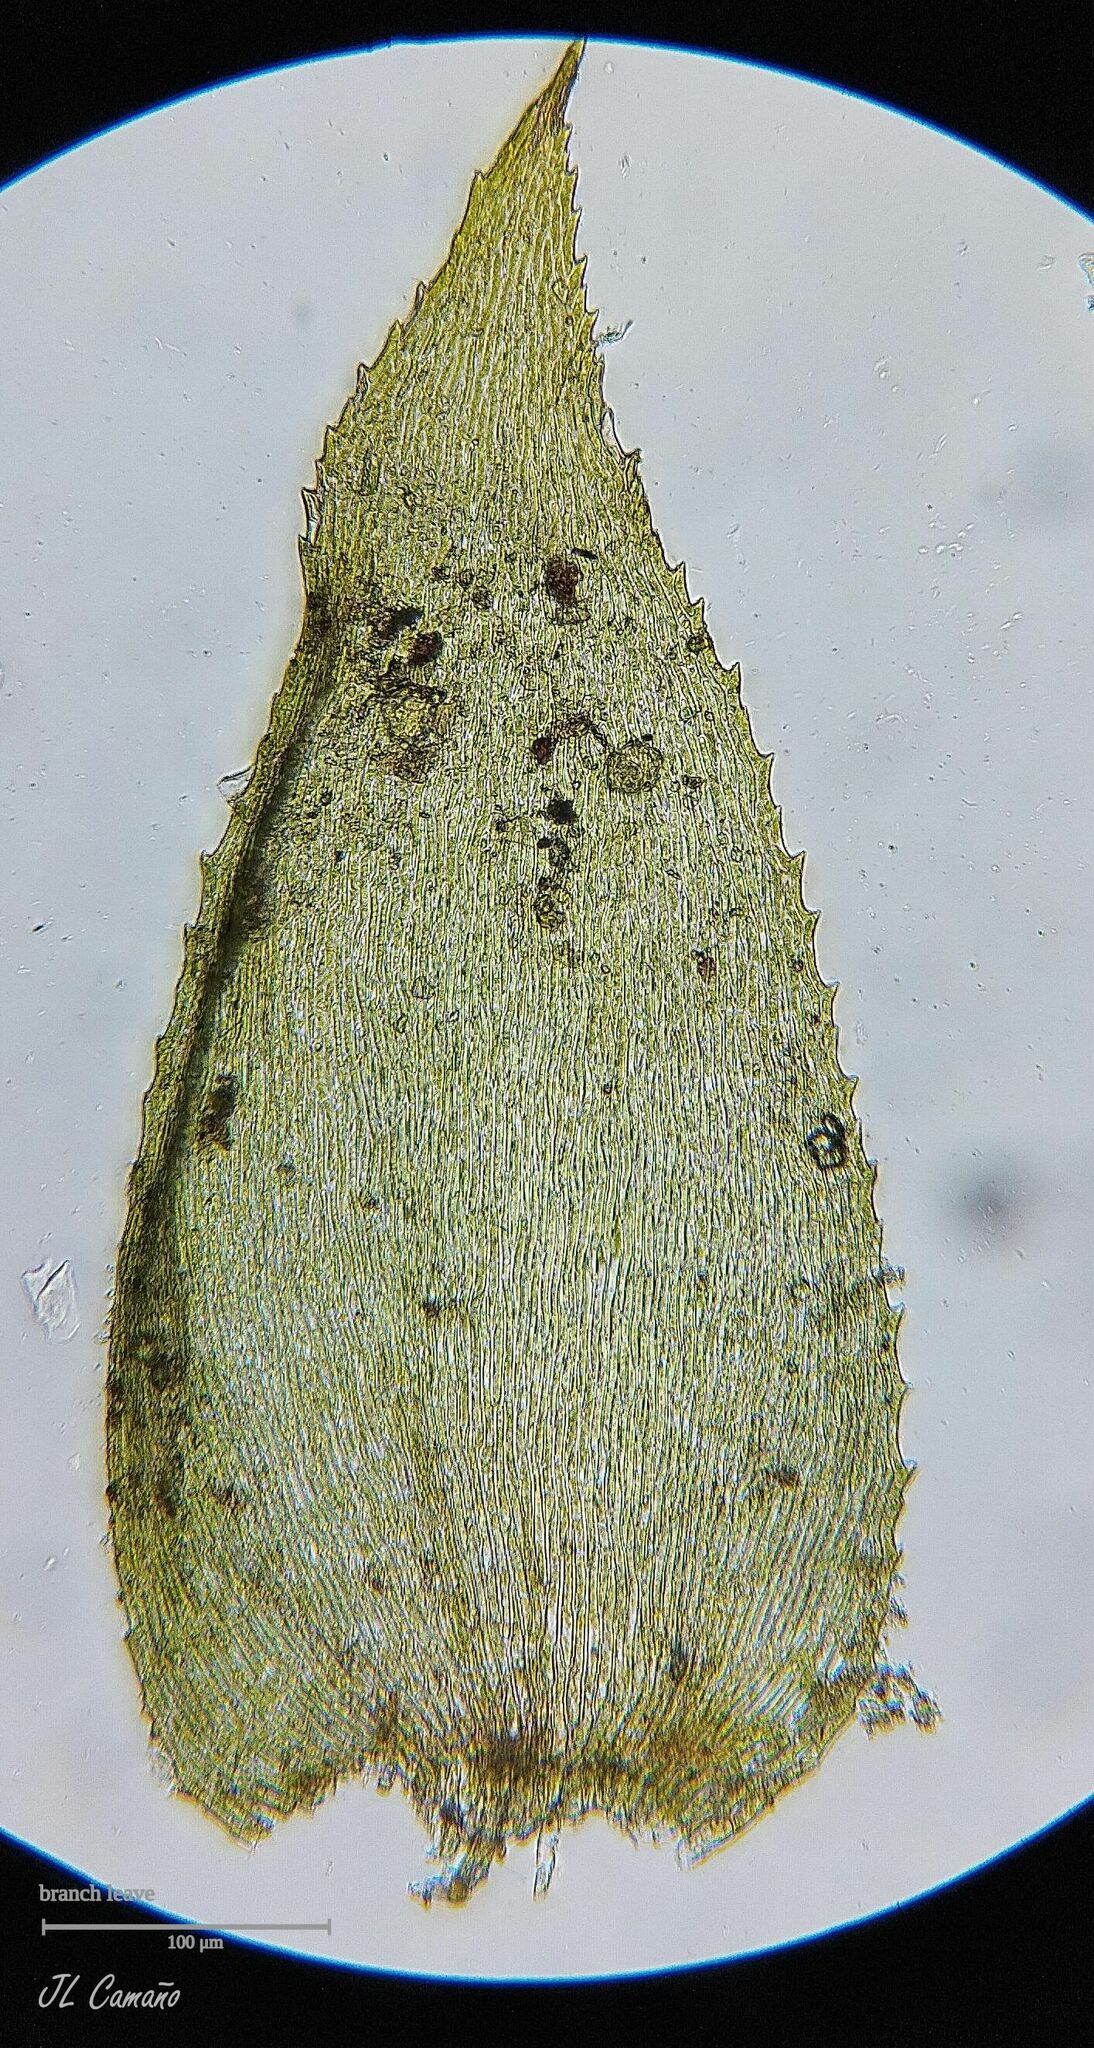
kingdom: Plantae
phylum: Bryophyta
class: Bryopsida
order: Hypnales
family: Myuriaceae
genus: Hyocomium
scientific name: Hyocomium armoricum
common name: Flagellate feather-moss
